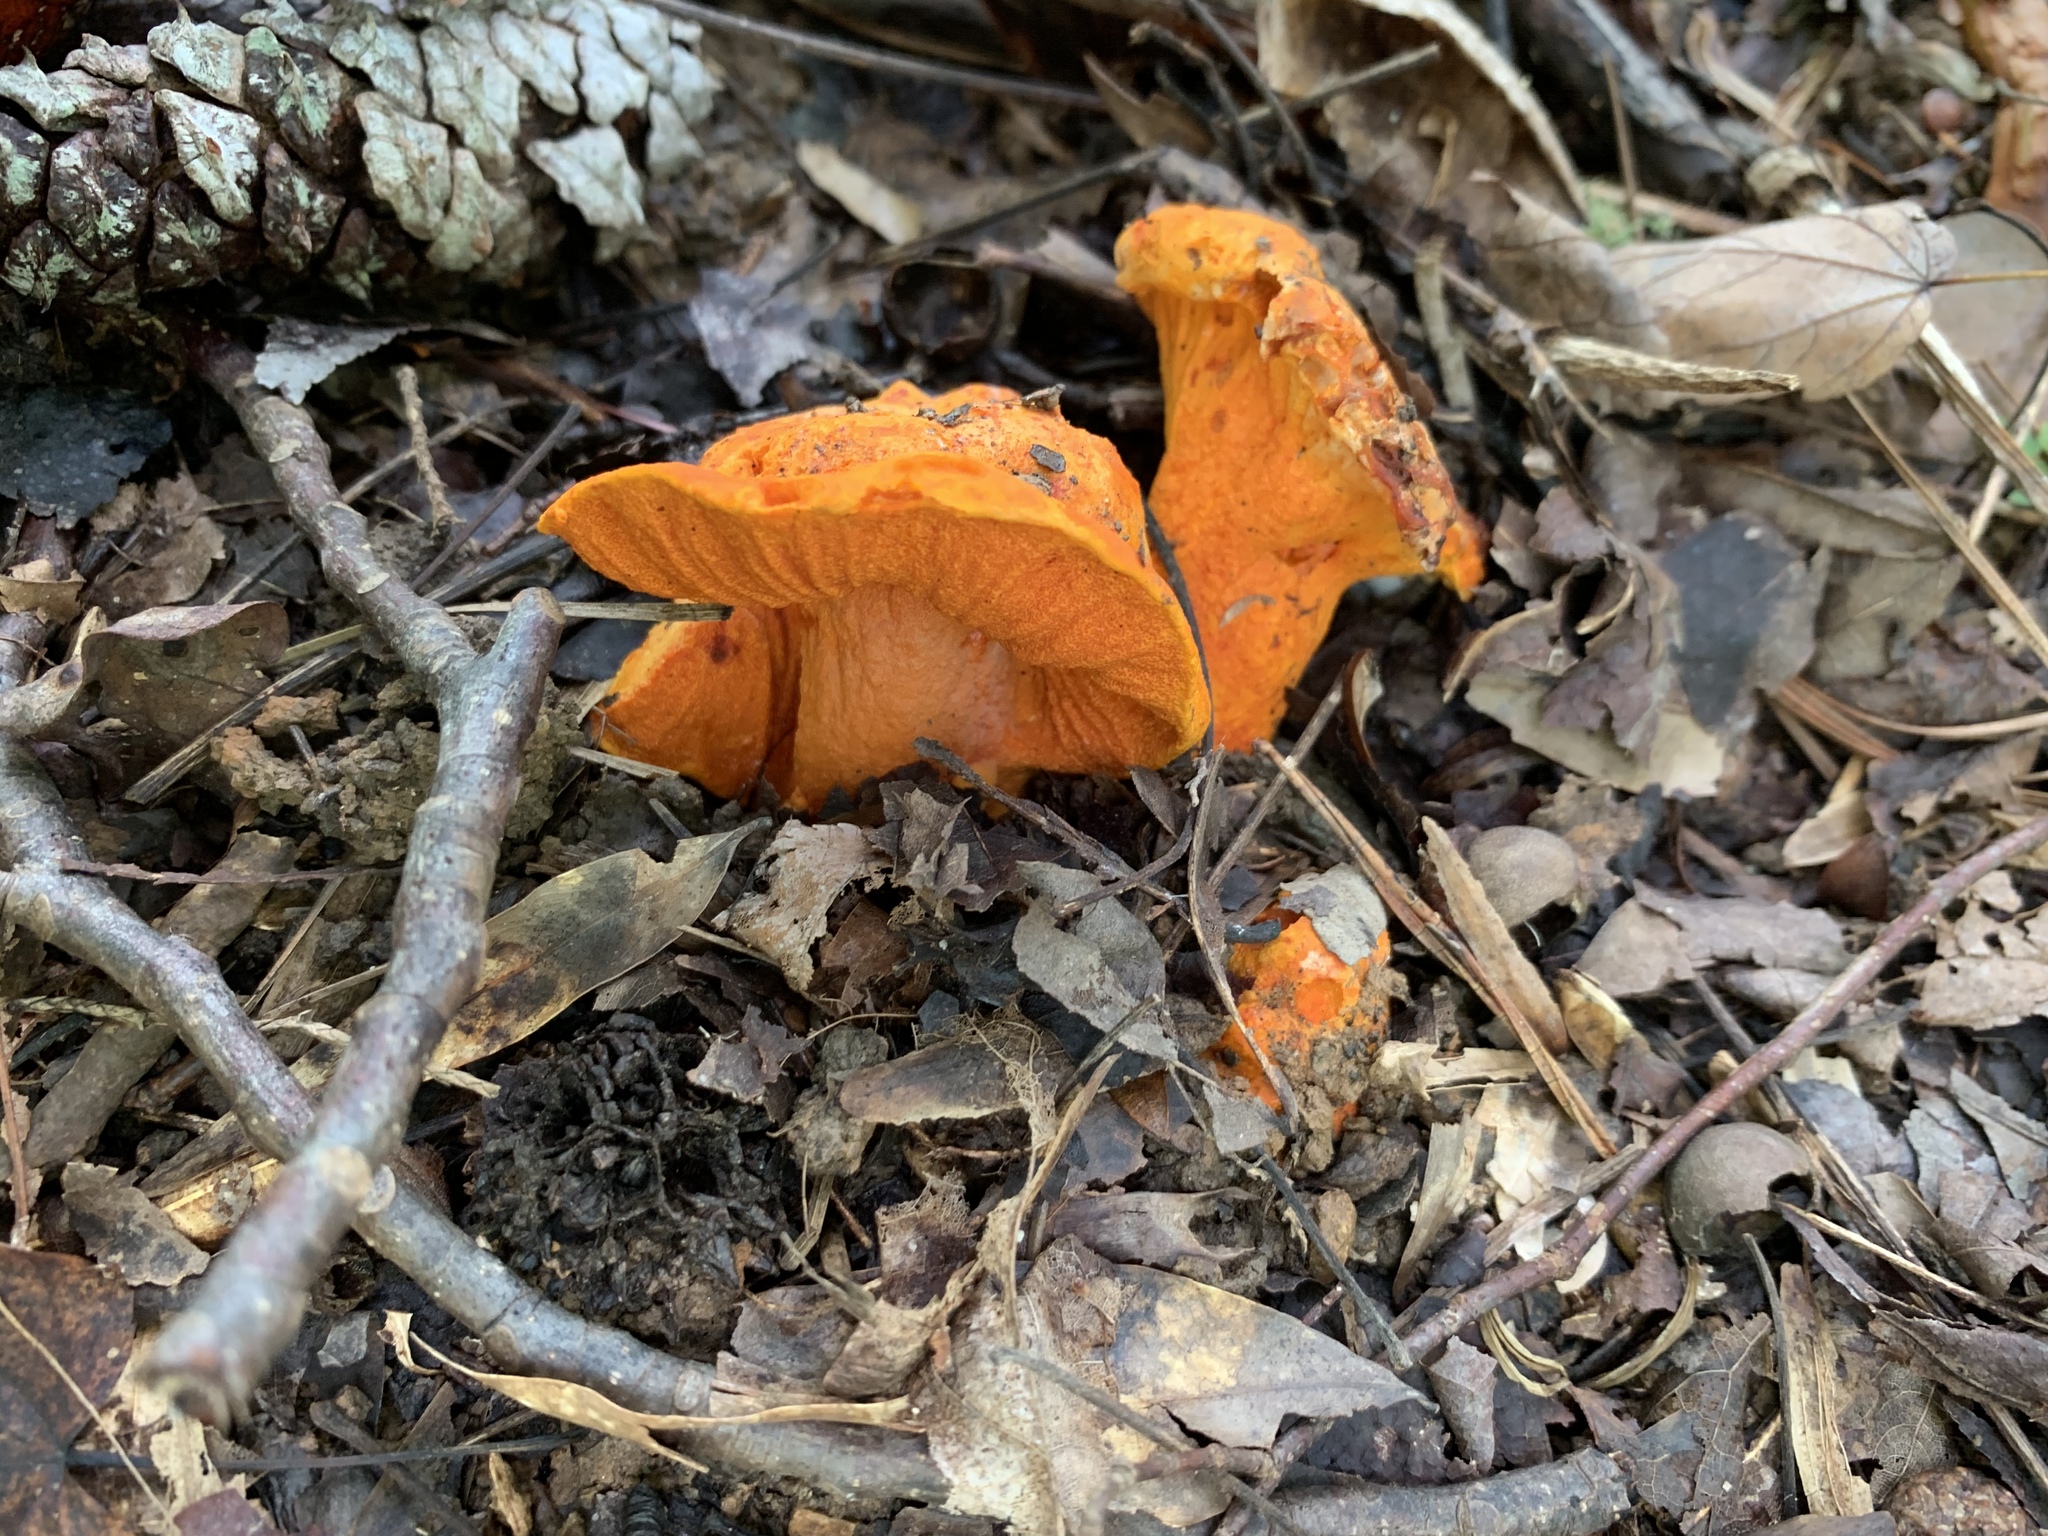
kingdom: Fungi
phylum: Ascomycota
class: Sordariomycetes
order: Hypocreales
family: Hypocreaceae
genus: Hypomyces
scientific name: Hypomyces lactifluorum
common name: Lobster mushroom
